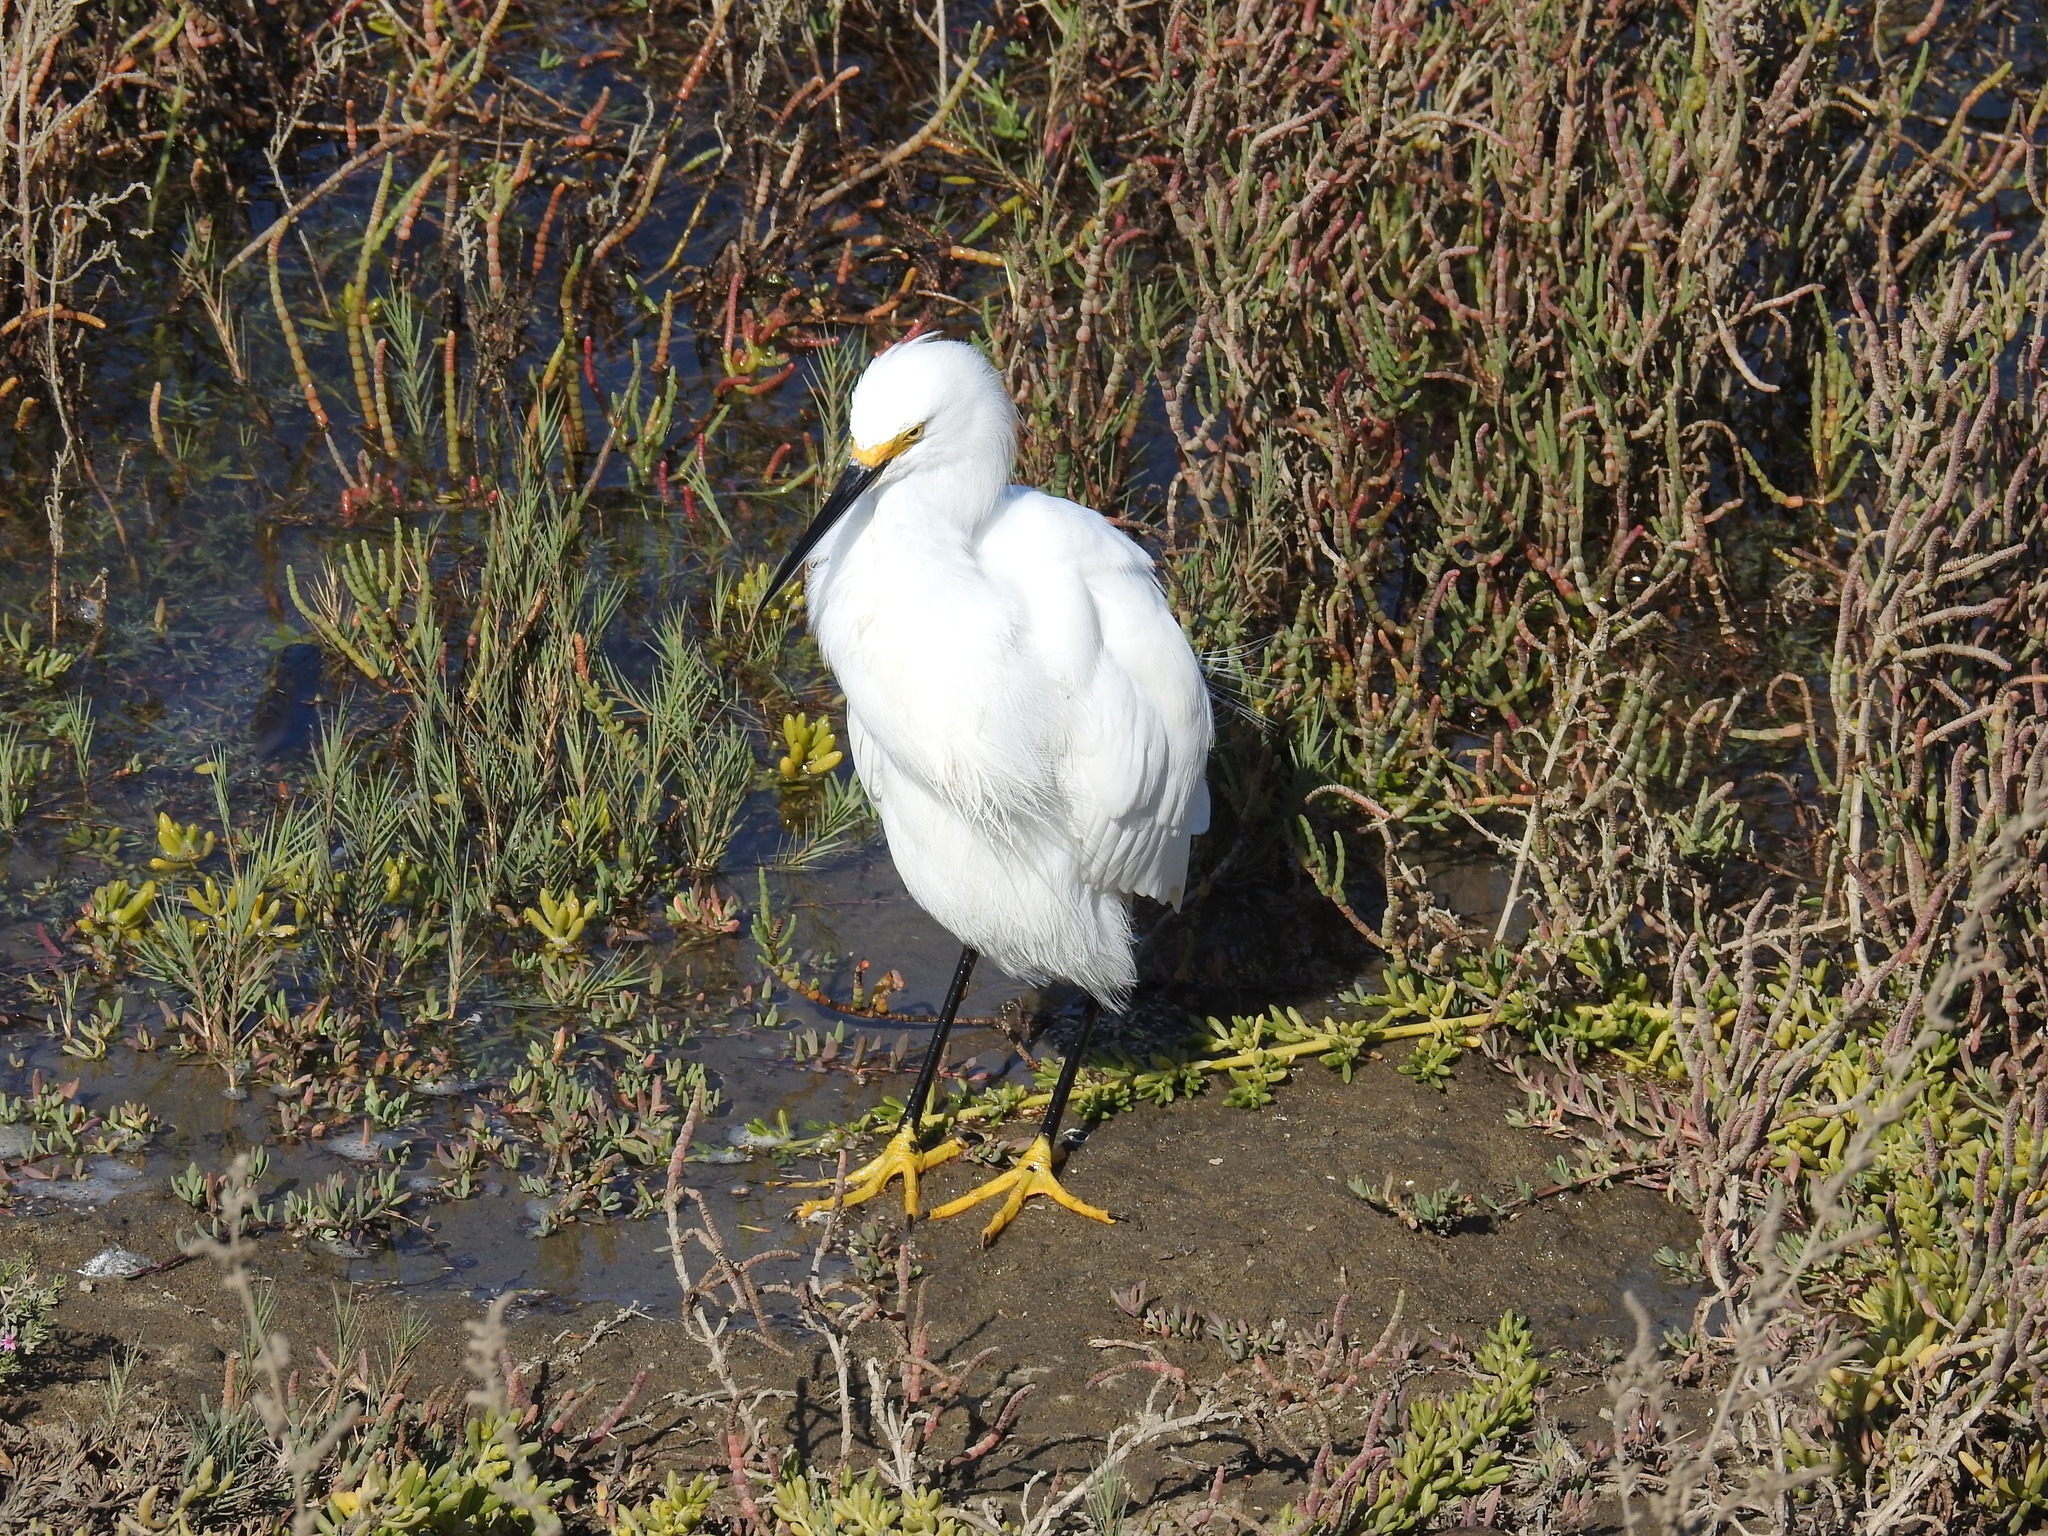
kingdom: Animalia
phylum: Chordata
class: Aves
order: Pelecaniformes
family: Ardeidae
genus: Egretta
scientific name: Egretta thula
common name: Snowy egret
